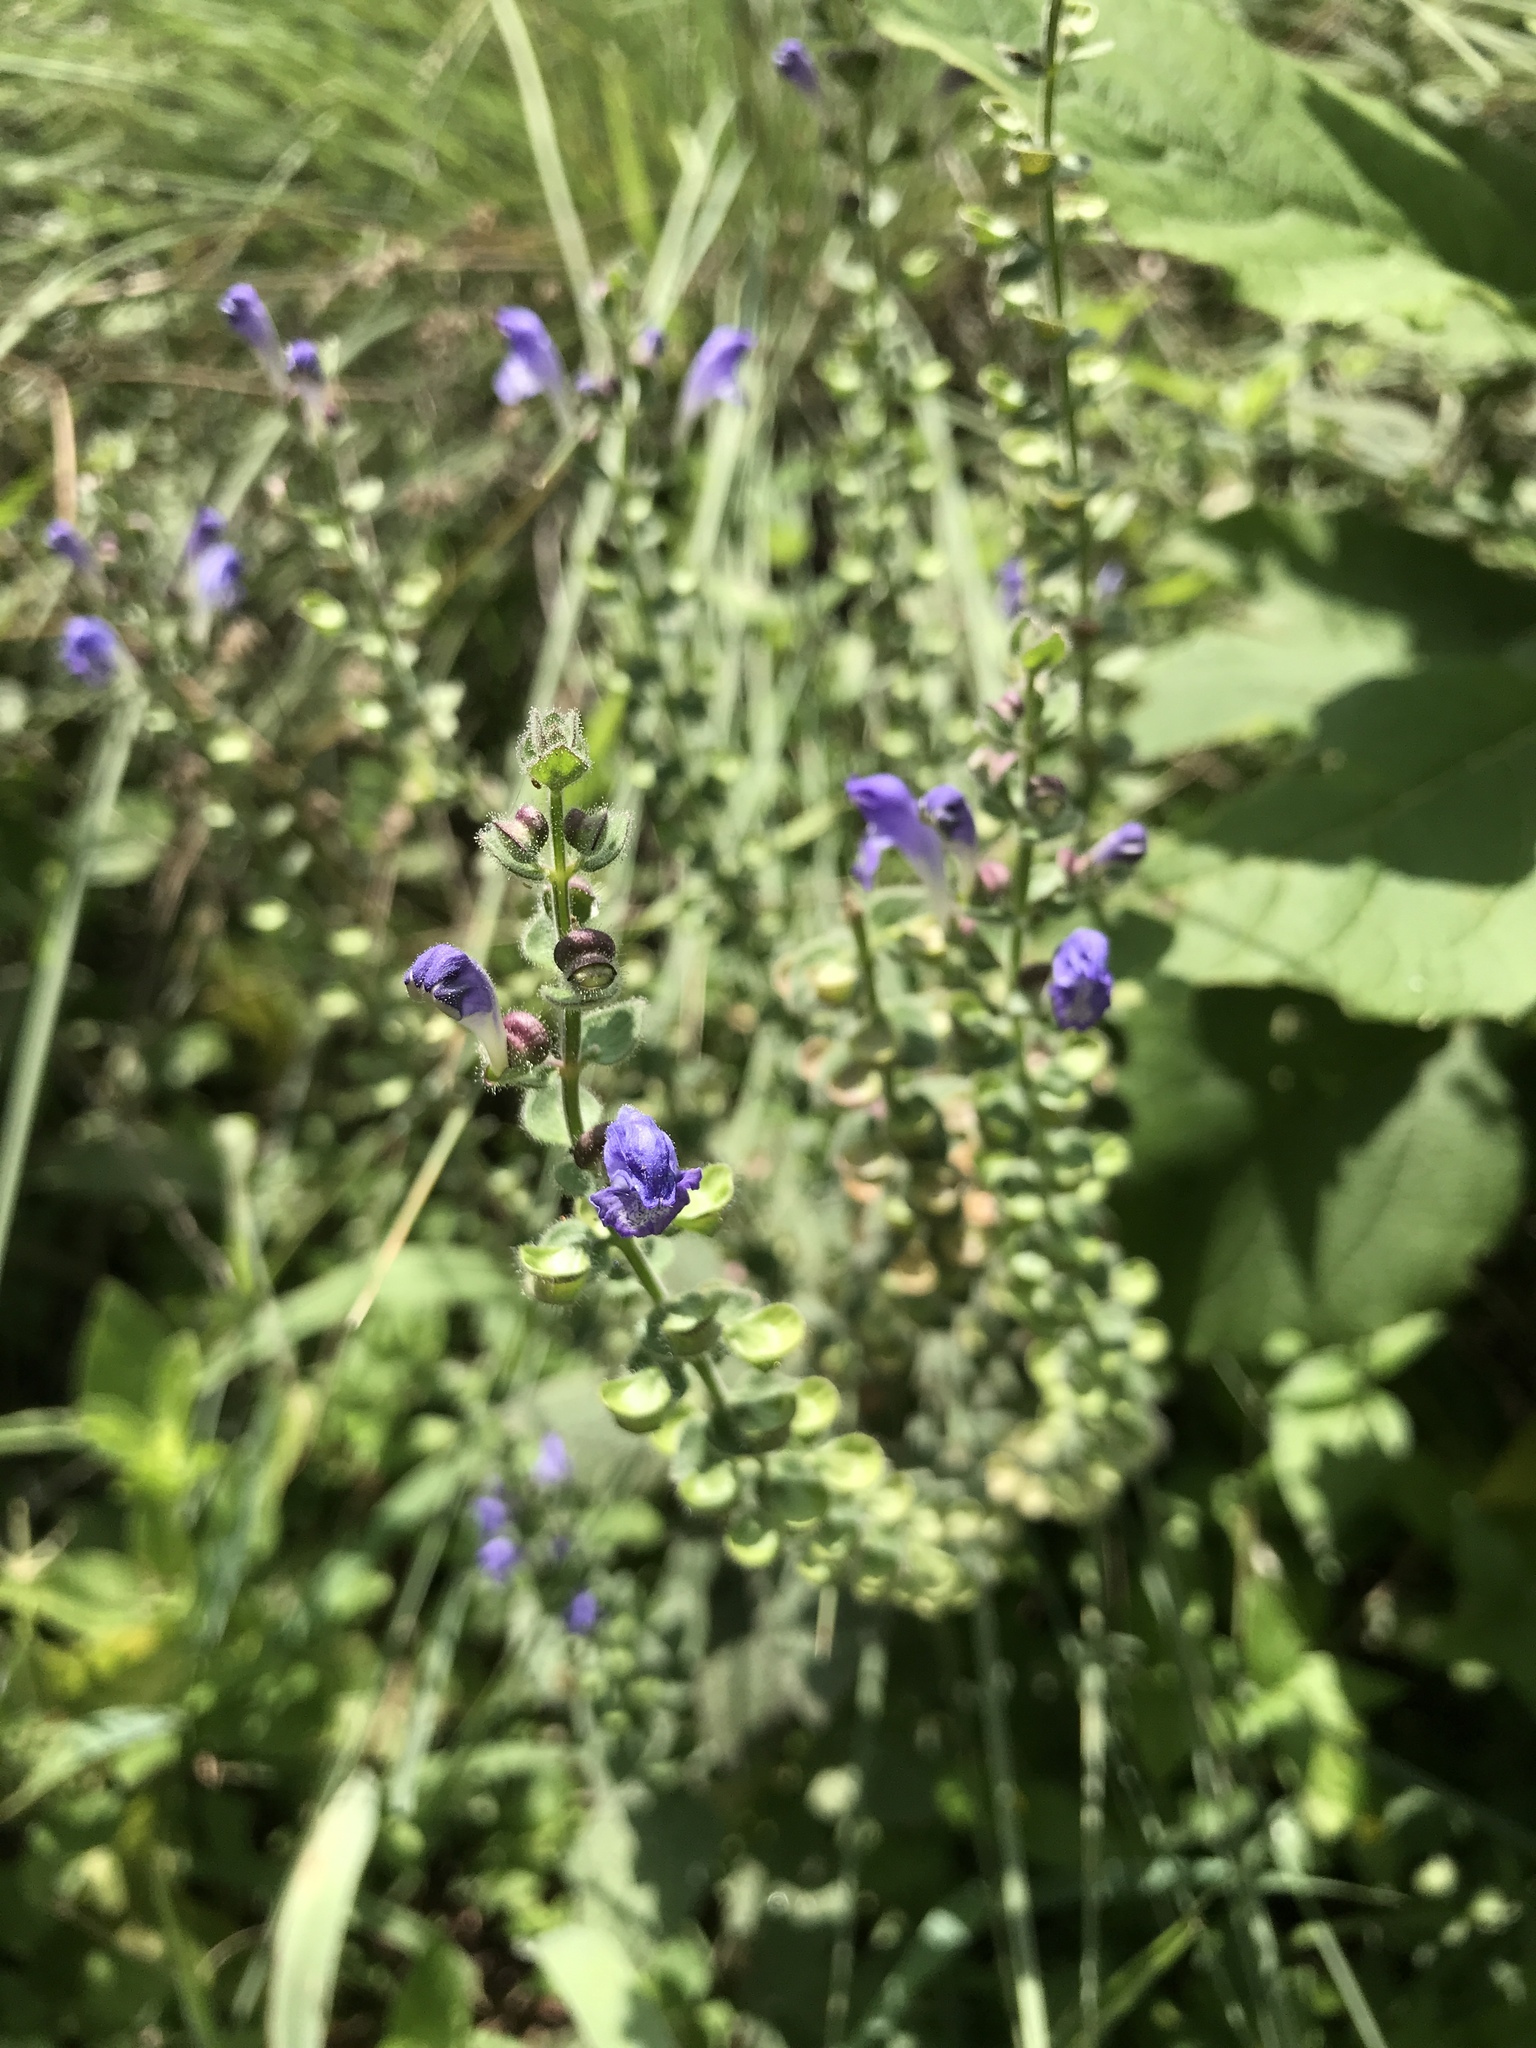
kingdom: Plantae
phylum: Tracheophyta
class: Magnoliopsida
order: Lamiales
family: Lamiaceae
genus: Scutellaria
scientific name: Scutellaria ovata
